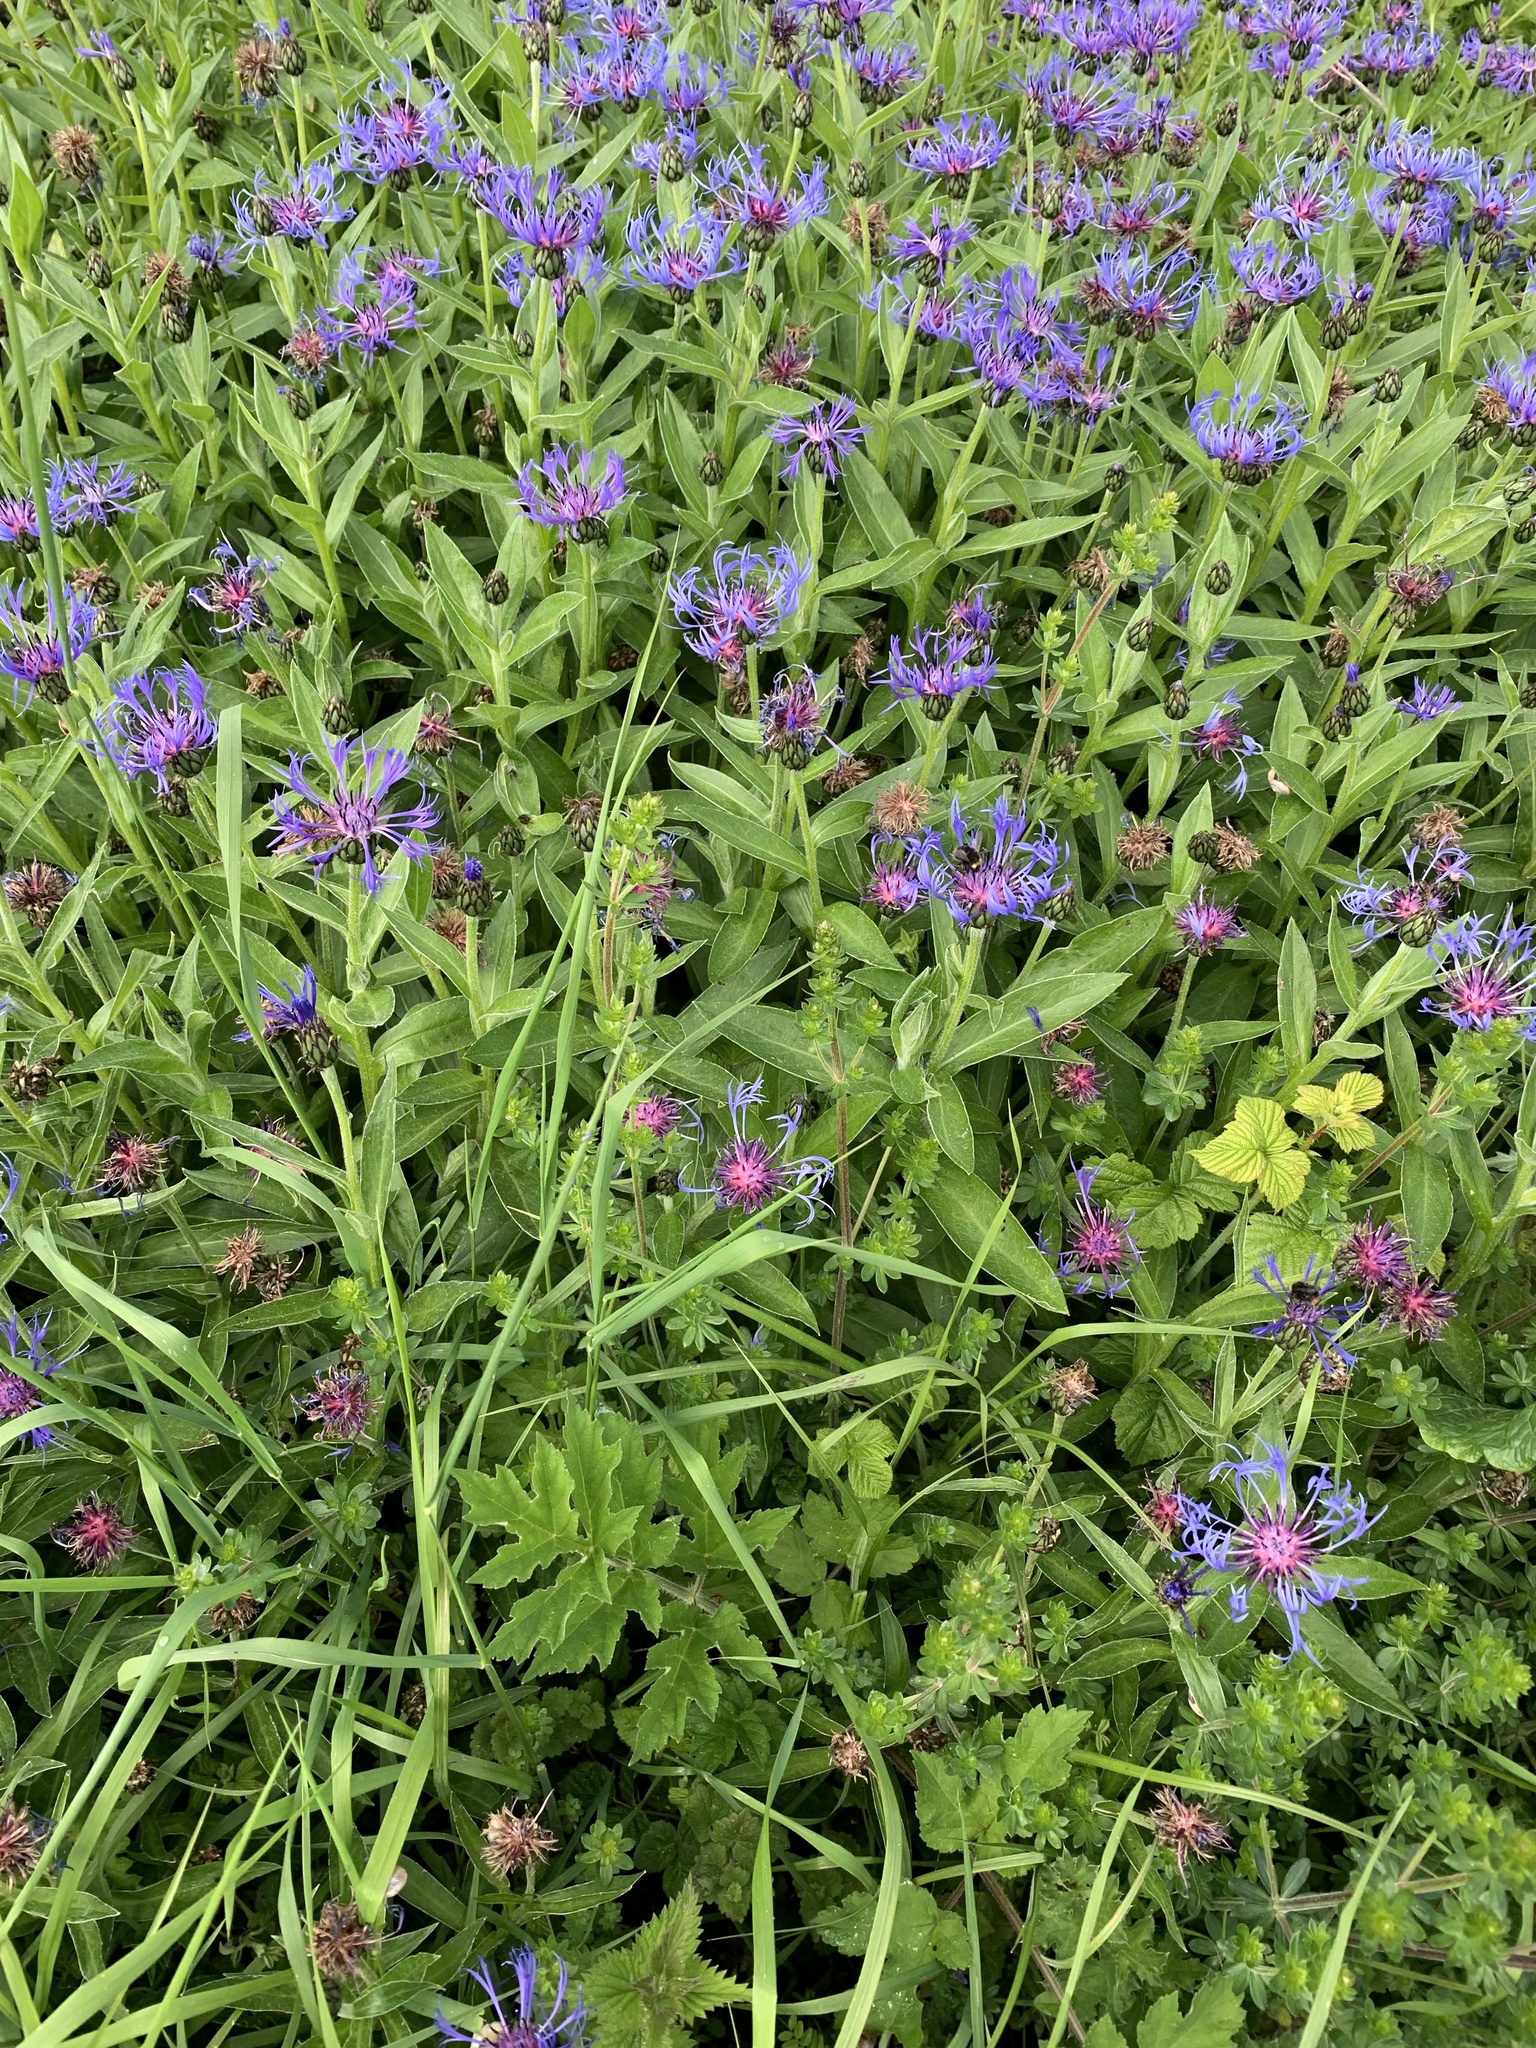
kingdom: Plantae
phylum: Tracheophyta
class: Magnoliopsida
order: Asterales
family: Asteraceae
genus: Centaurea
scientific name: Centaurea montana
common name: Perennial cornflower
